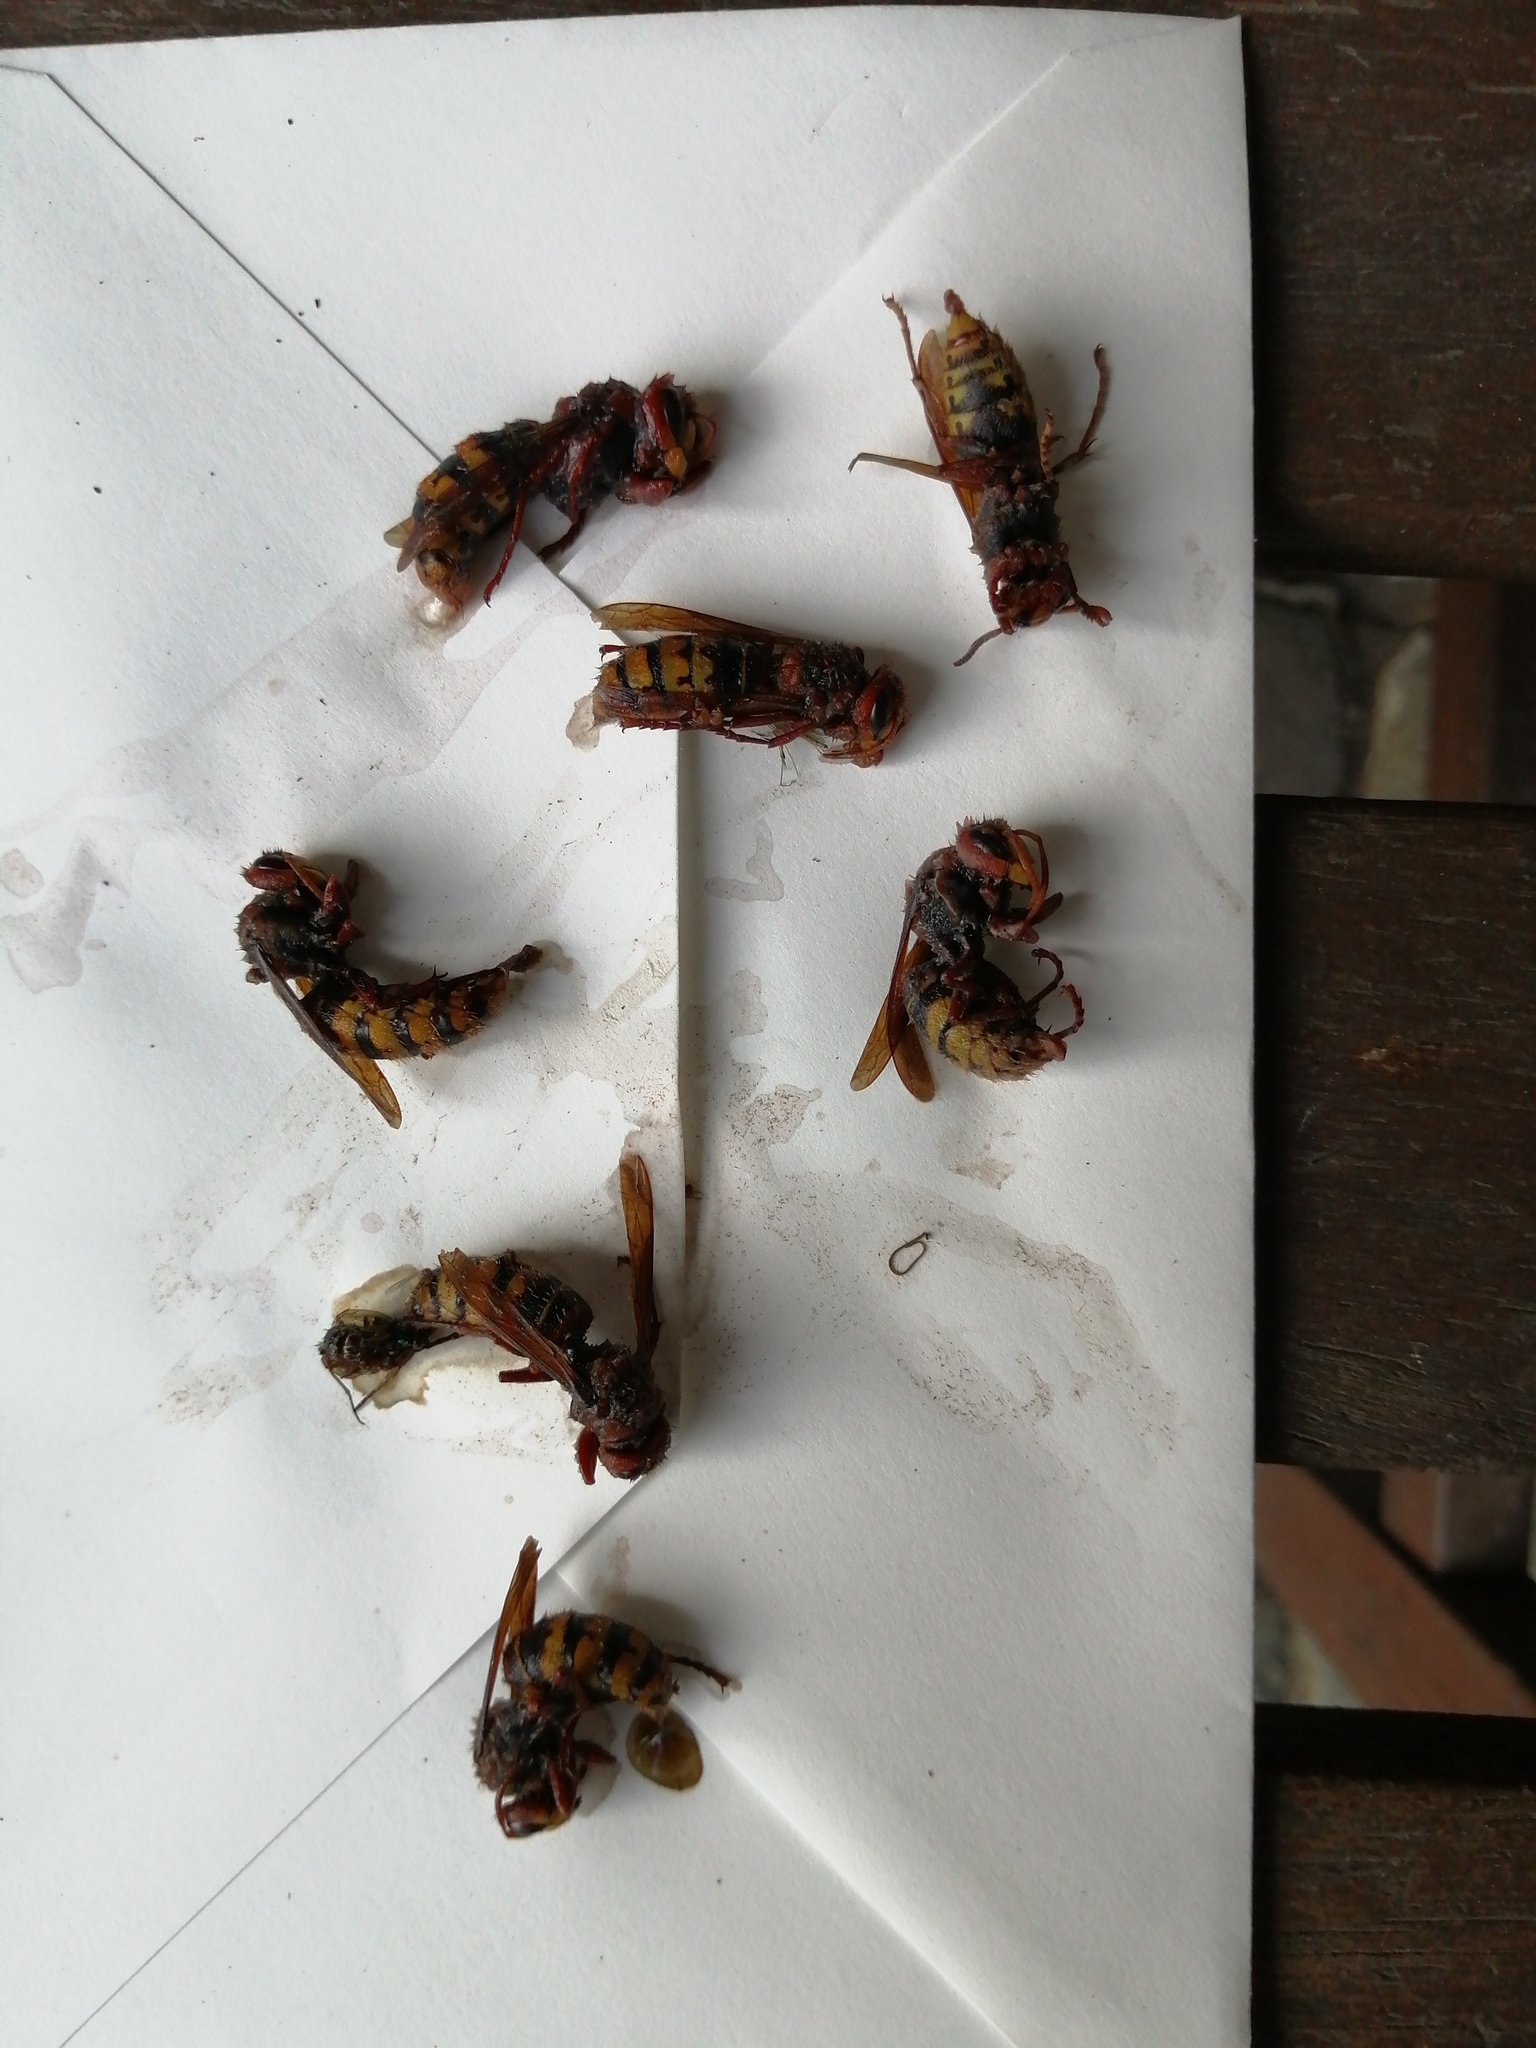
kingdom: Animalia
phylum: Arthropoda
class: Insecta
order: Hymenoptera
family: Vespidae
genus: Vespa
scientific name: Vespa crabro
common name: Hornet
